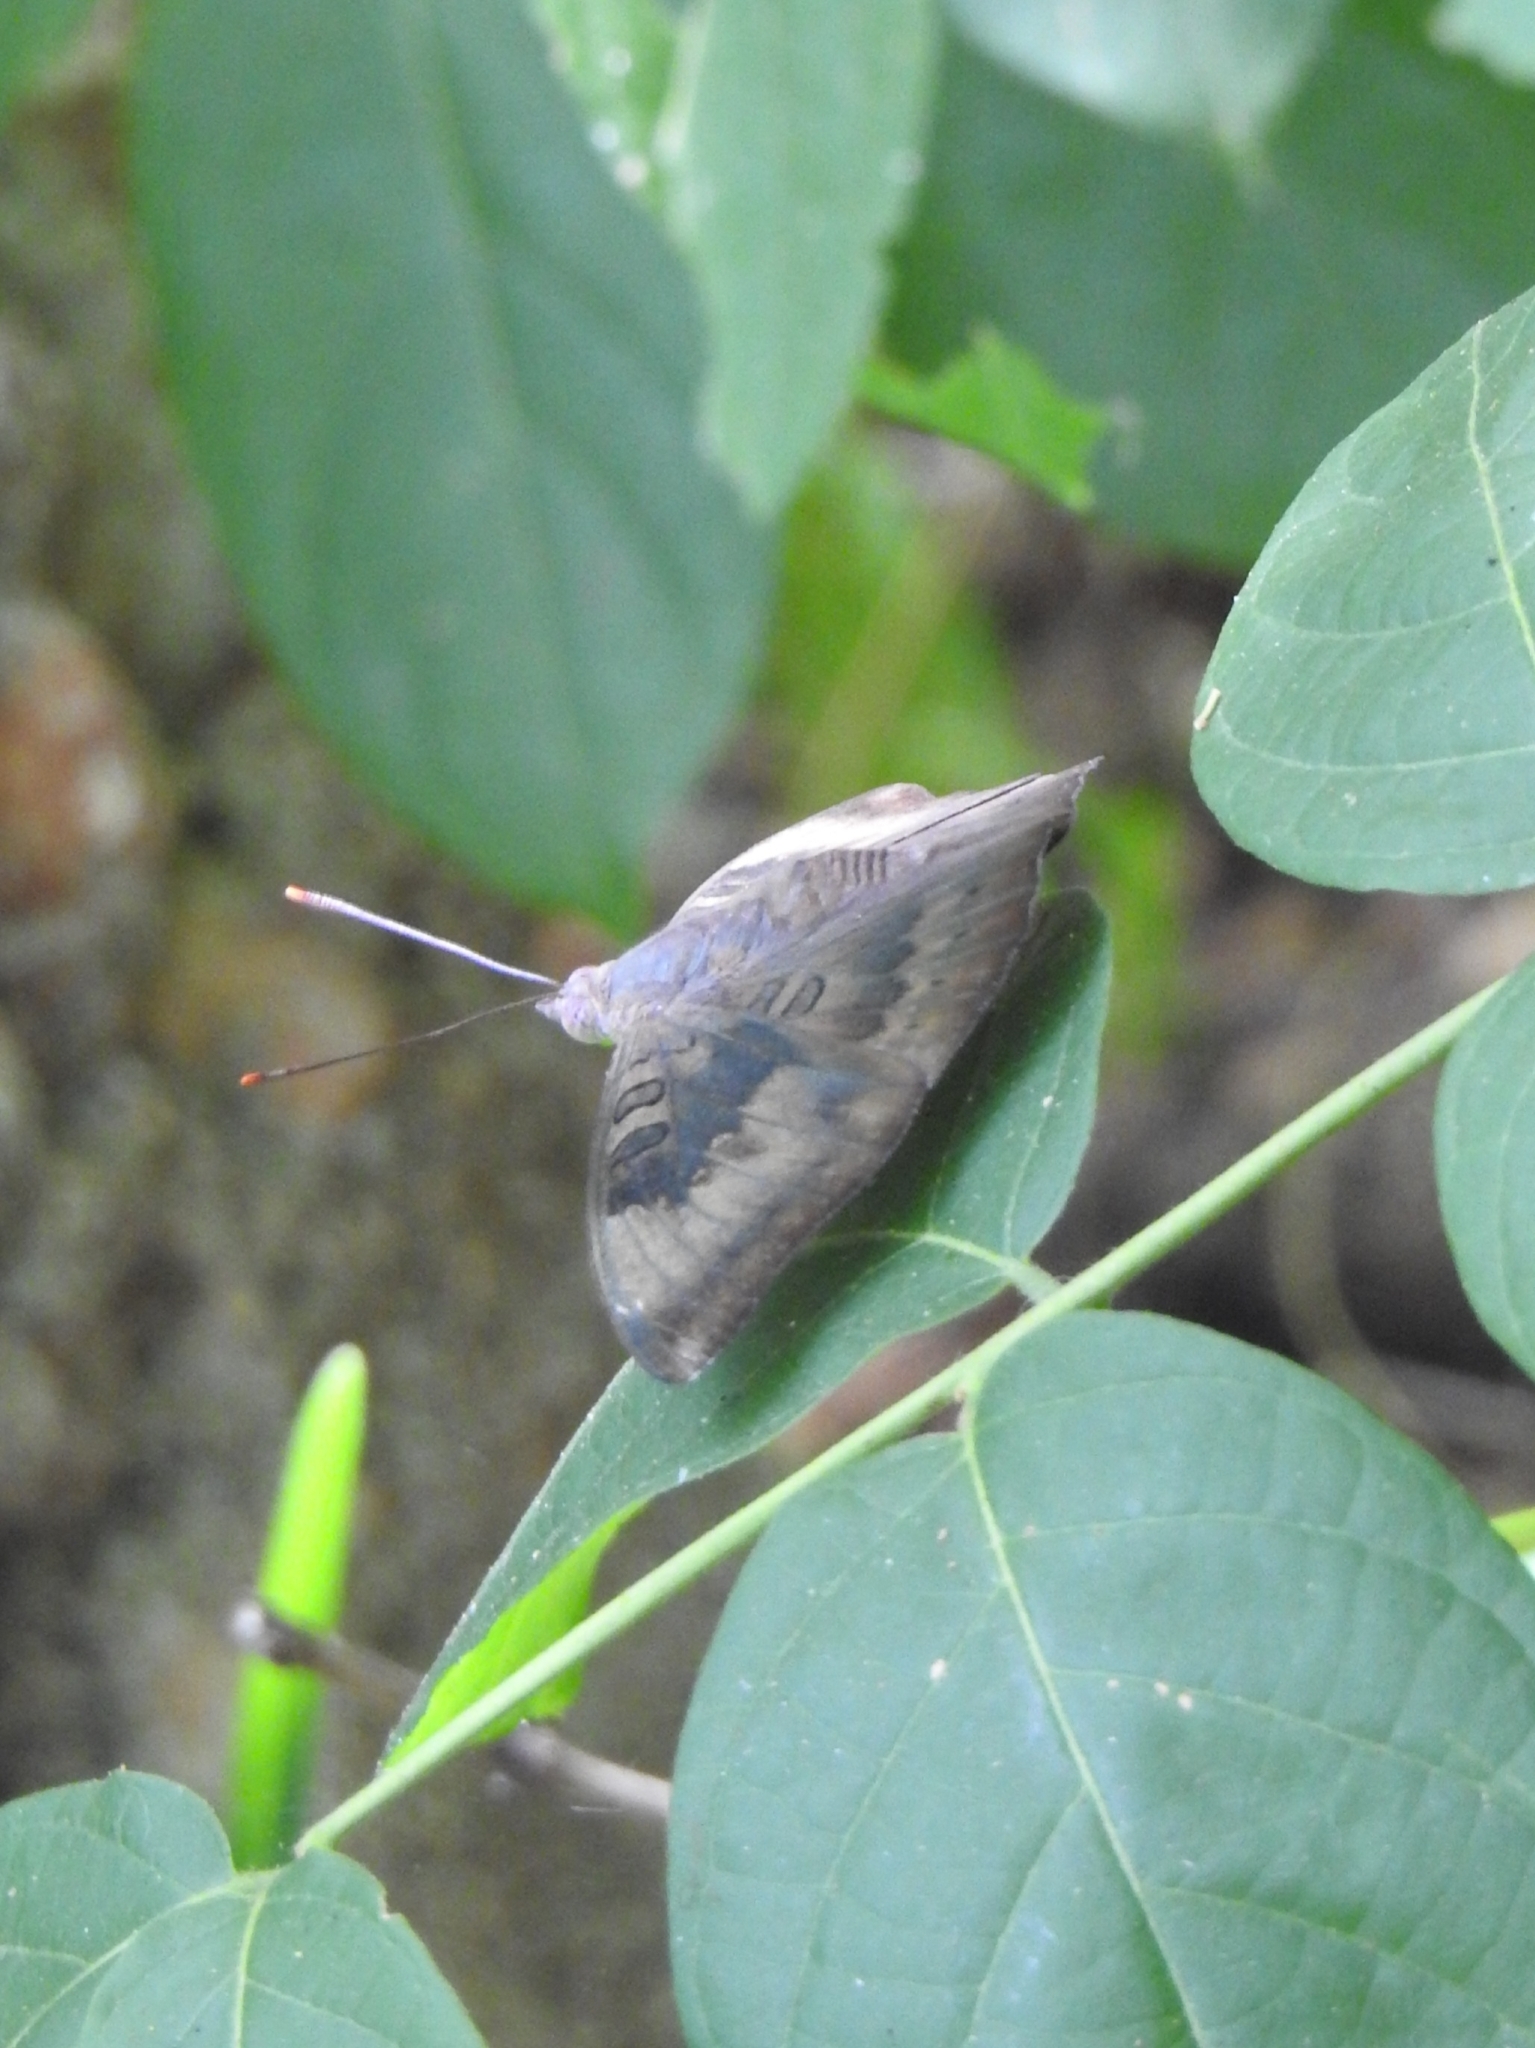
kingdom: Animalia
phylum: Arthropoda
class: Insecta
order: Lepidoptera
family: Nymphalidae
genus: Euthalia
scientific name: Euthalia aconthea
